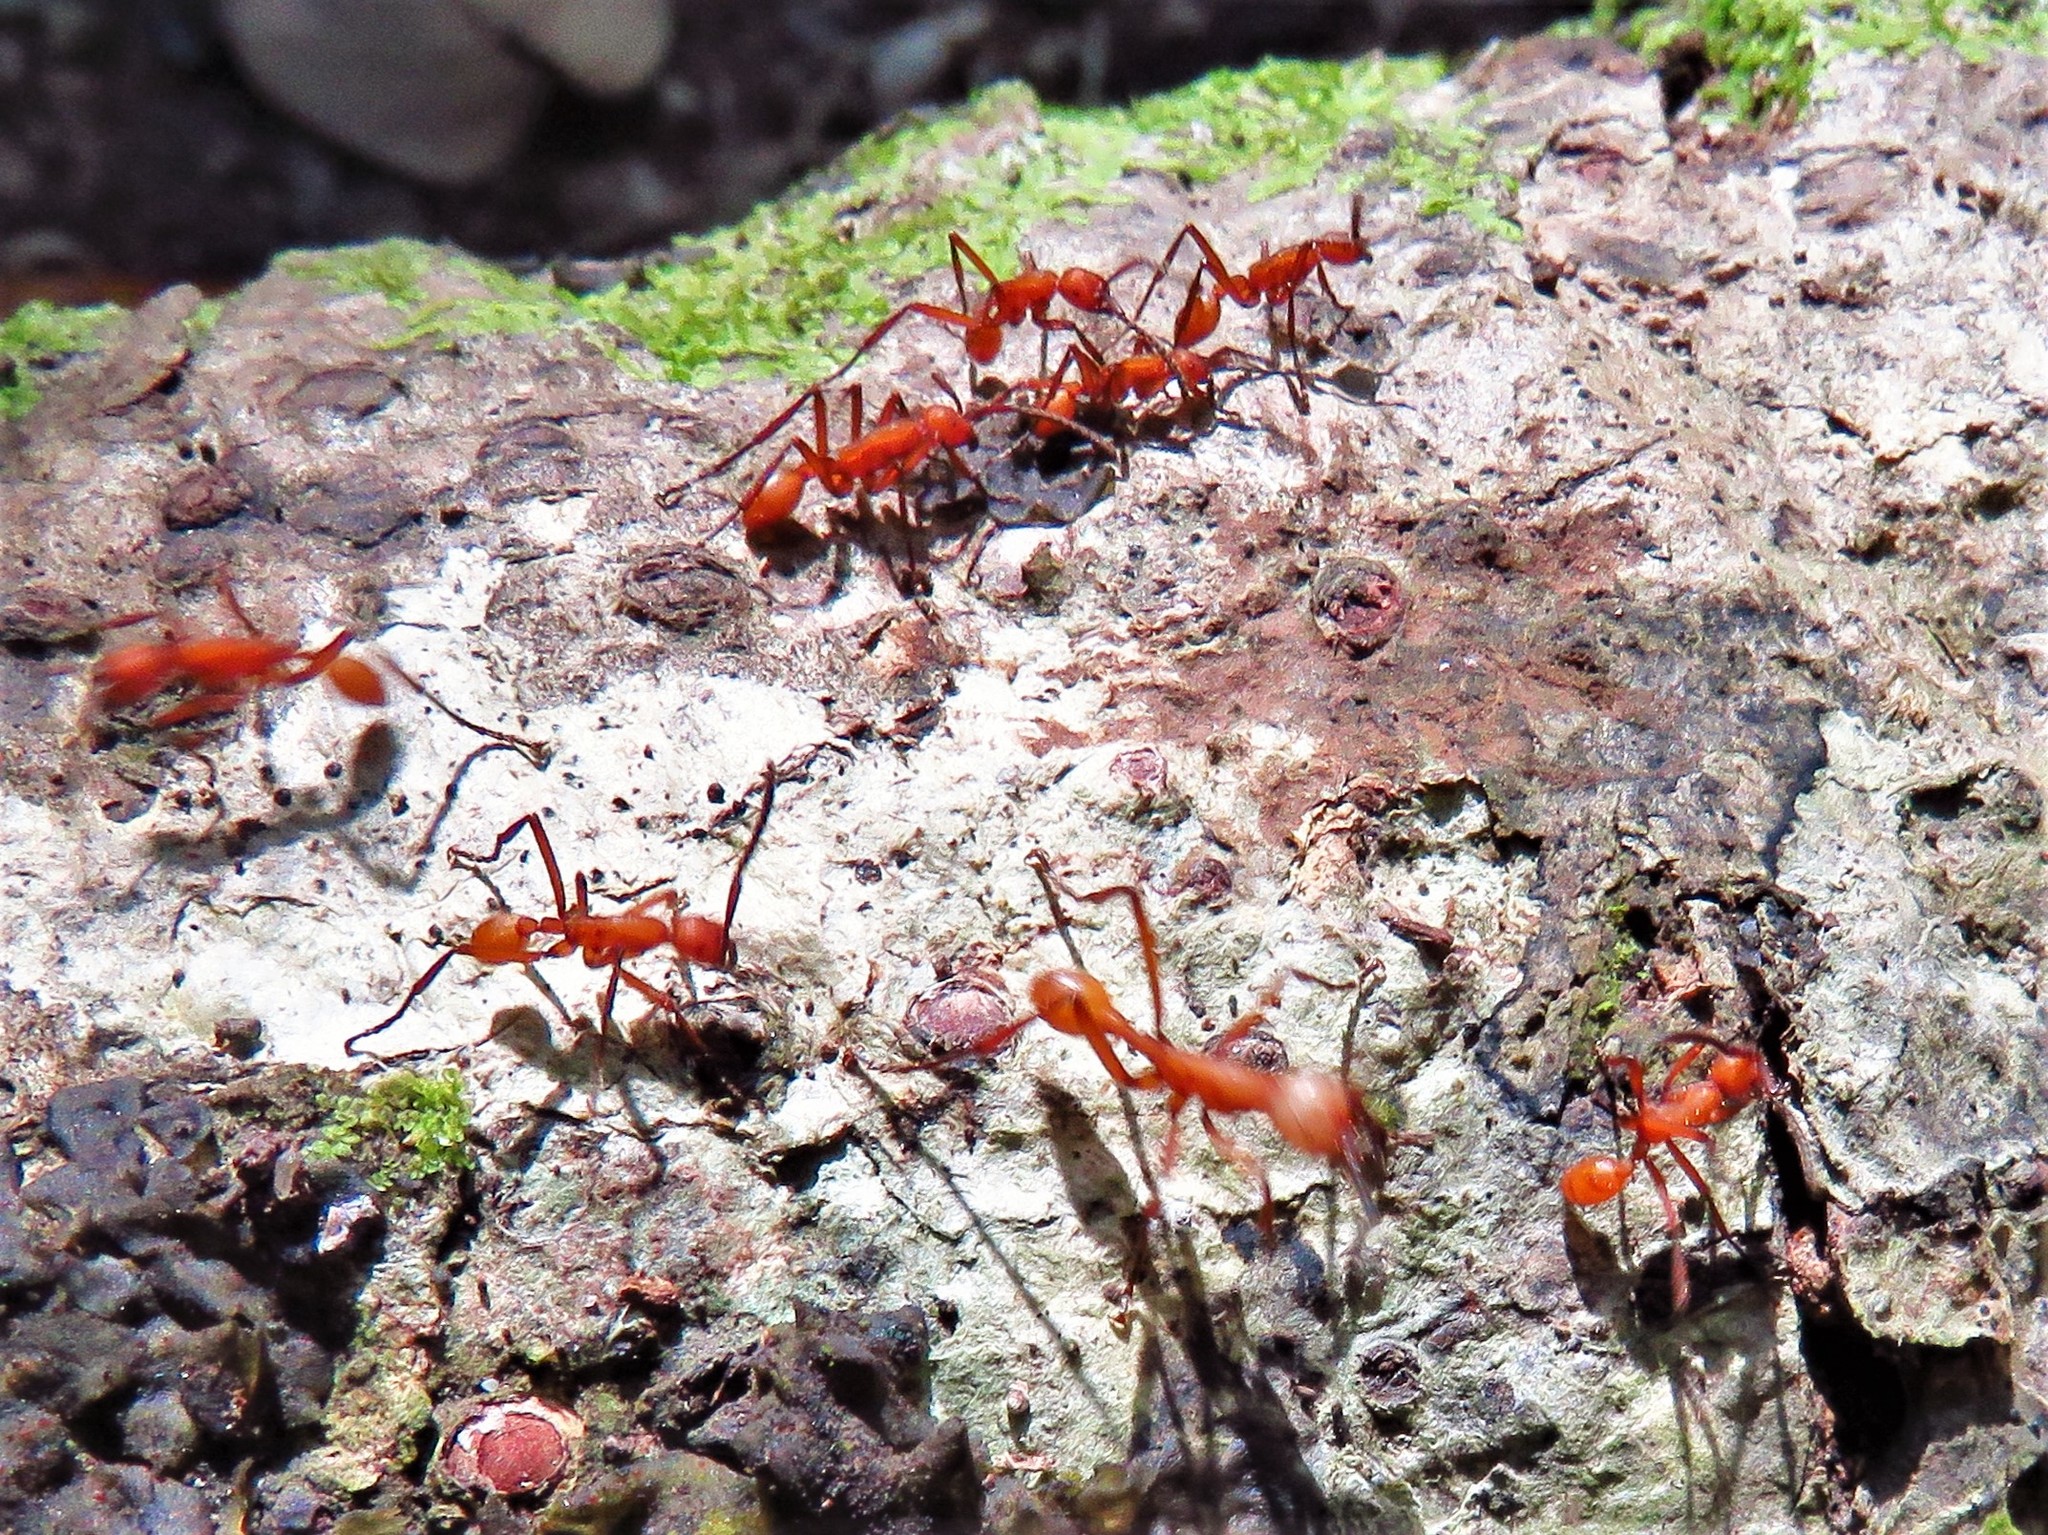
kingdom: Animalia
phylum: Arthropoda
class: Insecta
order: Hymenoptera
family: Formicidae
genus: Eciton
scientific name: Eciton hamatum
